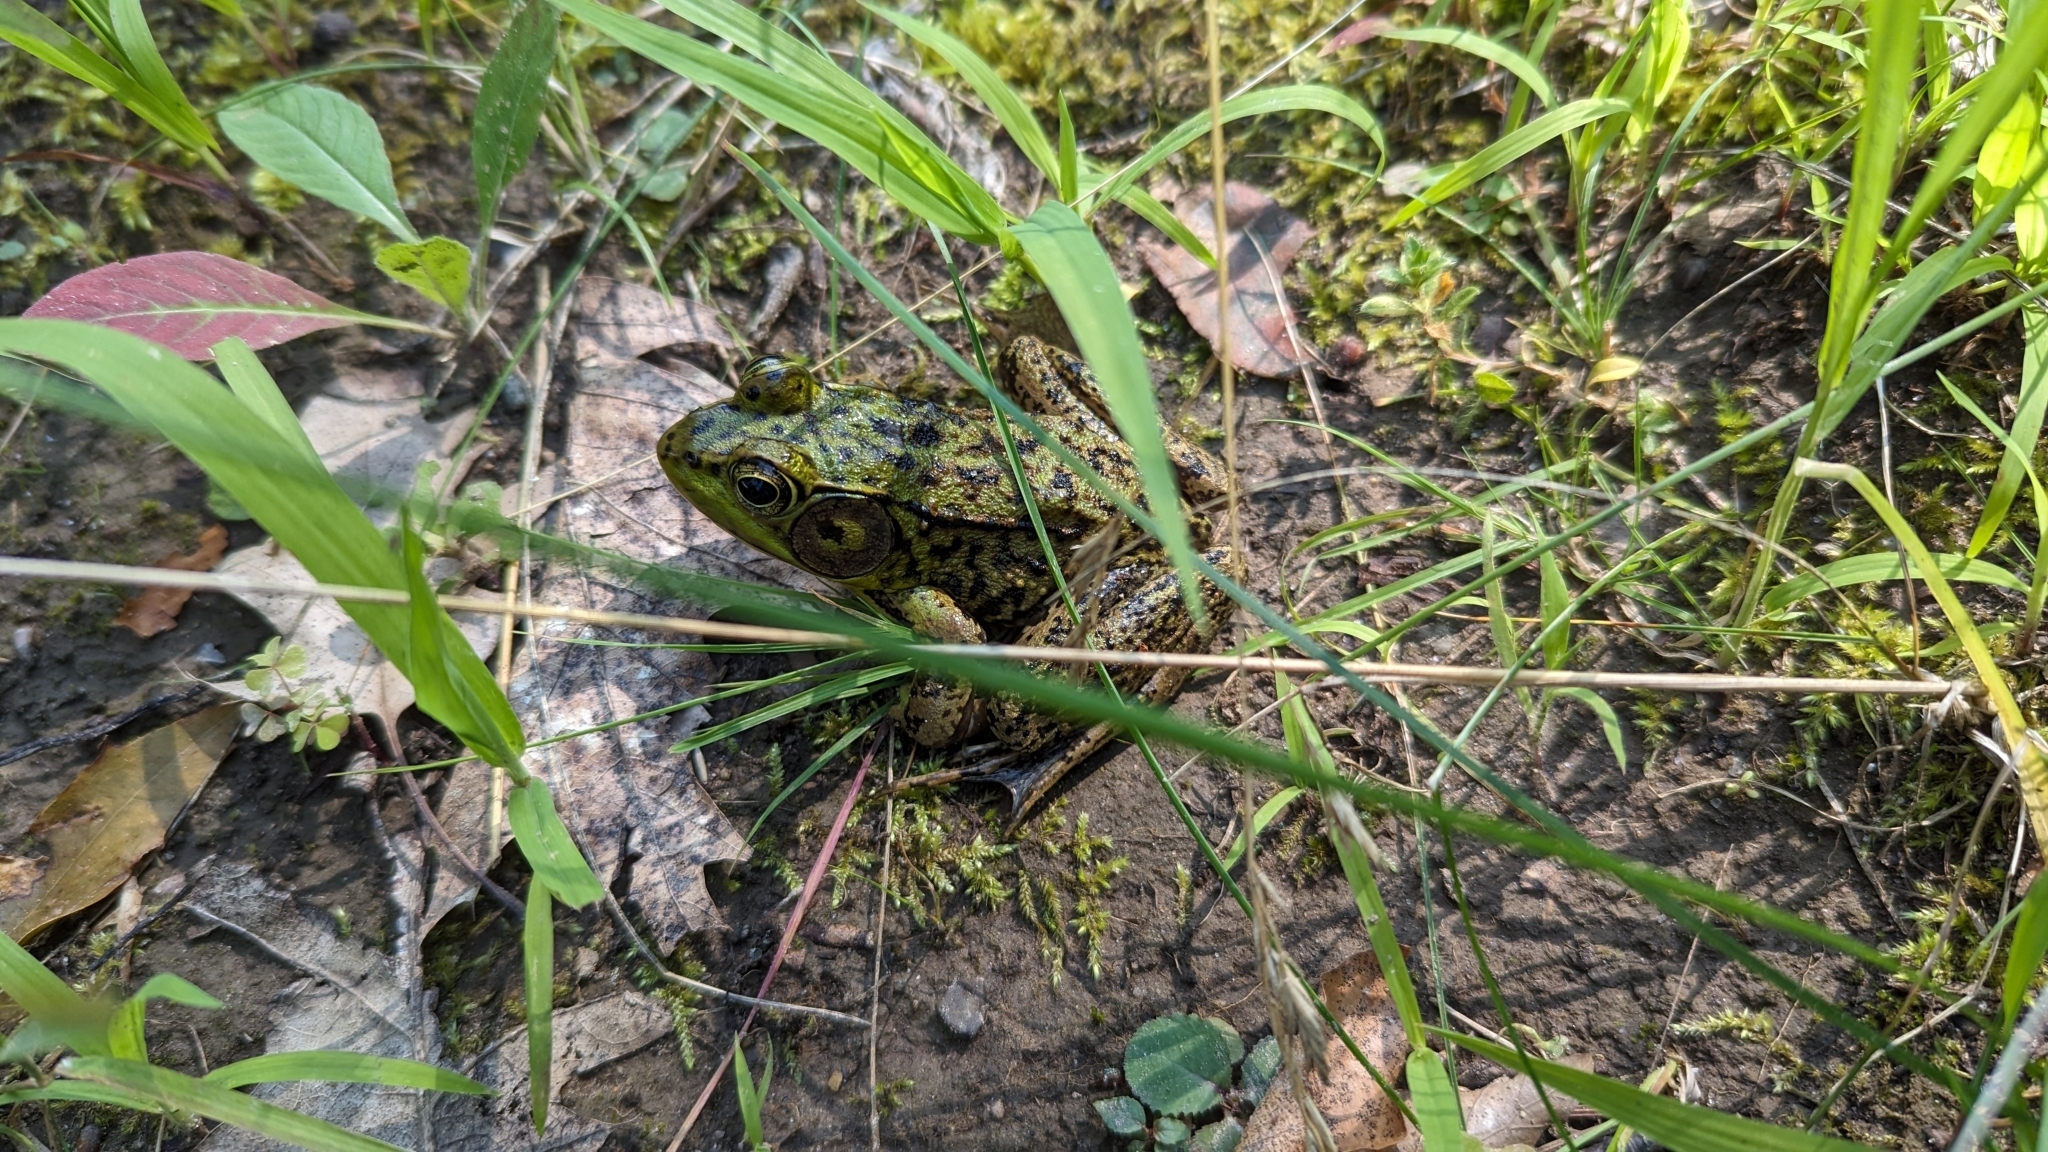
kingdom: Animalia
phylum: Chordata
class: Amphibia
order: Anura
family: Ranidae
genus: Lithobates
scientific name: Lithobates clamitans
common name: Green frog
